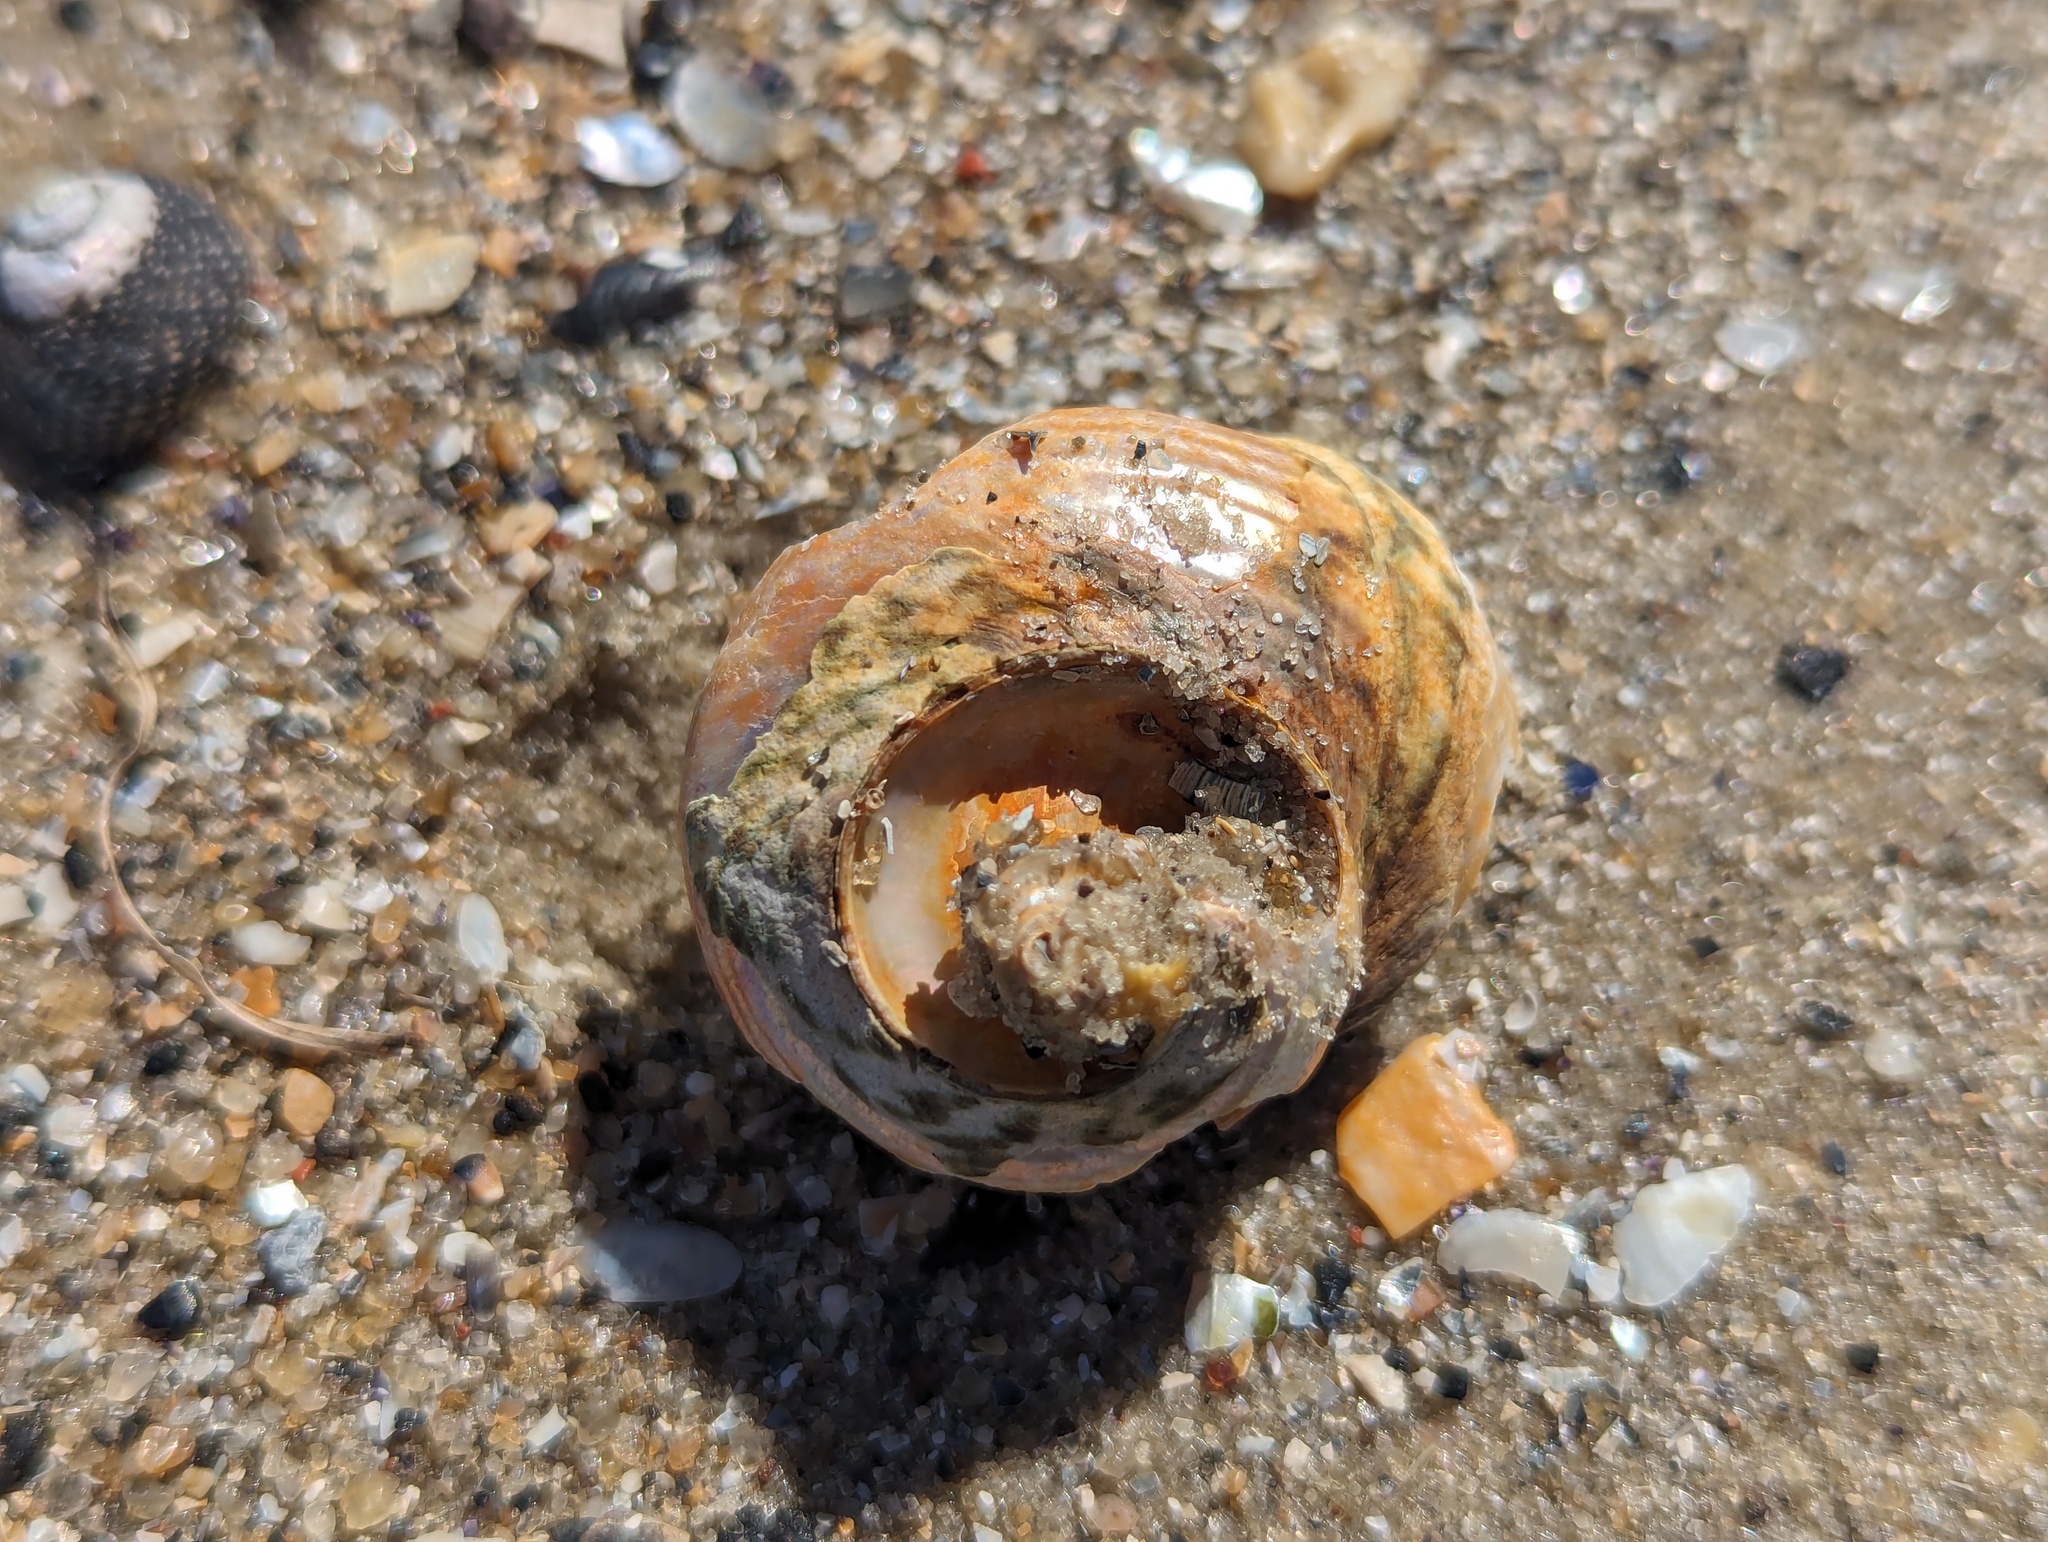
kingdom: Animalia
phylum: Mollusca
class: Gastropoda
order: Trochida
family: Turbinidae
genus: Lunella
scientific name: Lunella undulata
